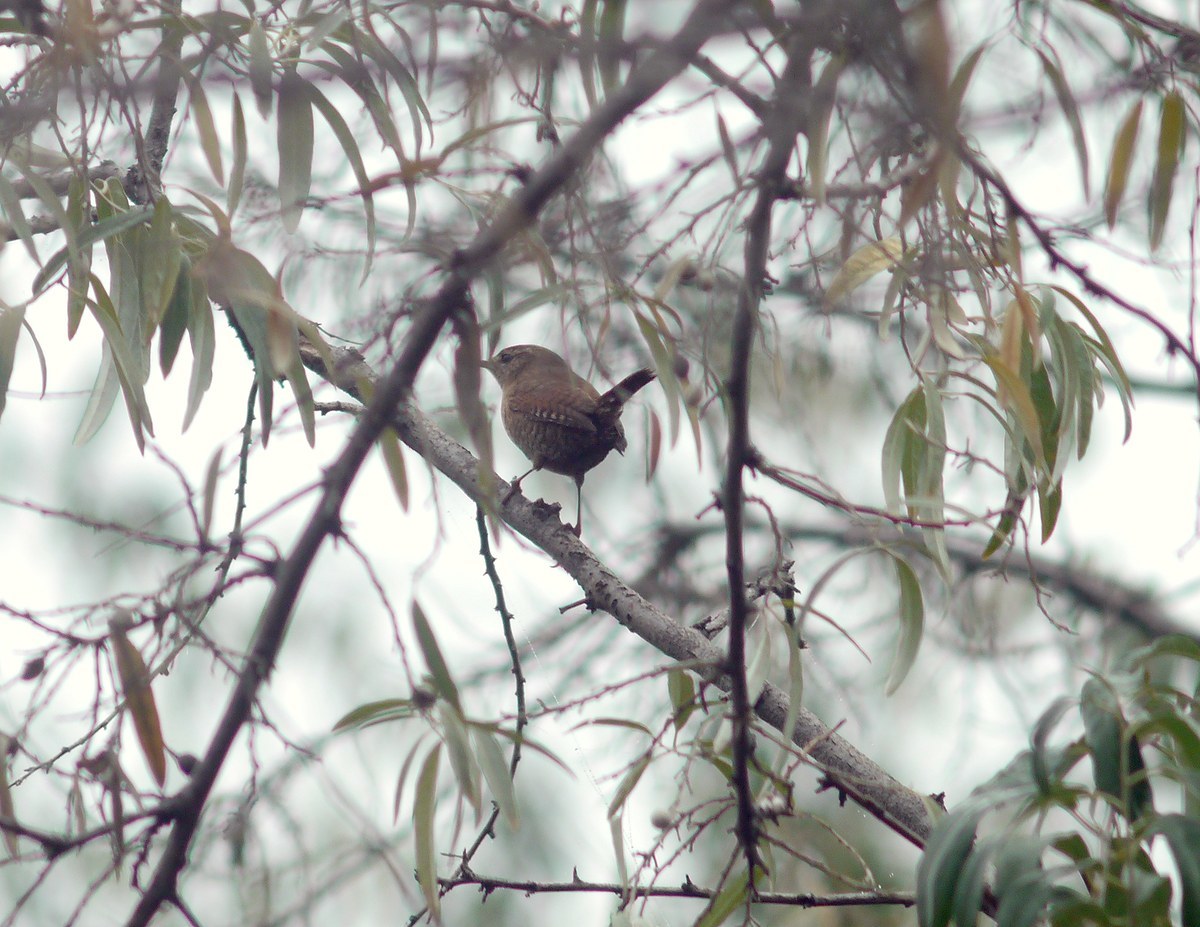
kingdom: Animalia
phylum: Chordata
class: Aves
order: Passeriformes
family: Troglodytidae
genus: Troglodytes
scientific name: Troglodytes troglodytes
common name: Eurasian wren
